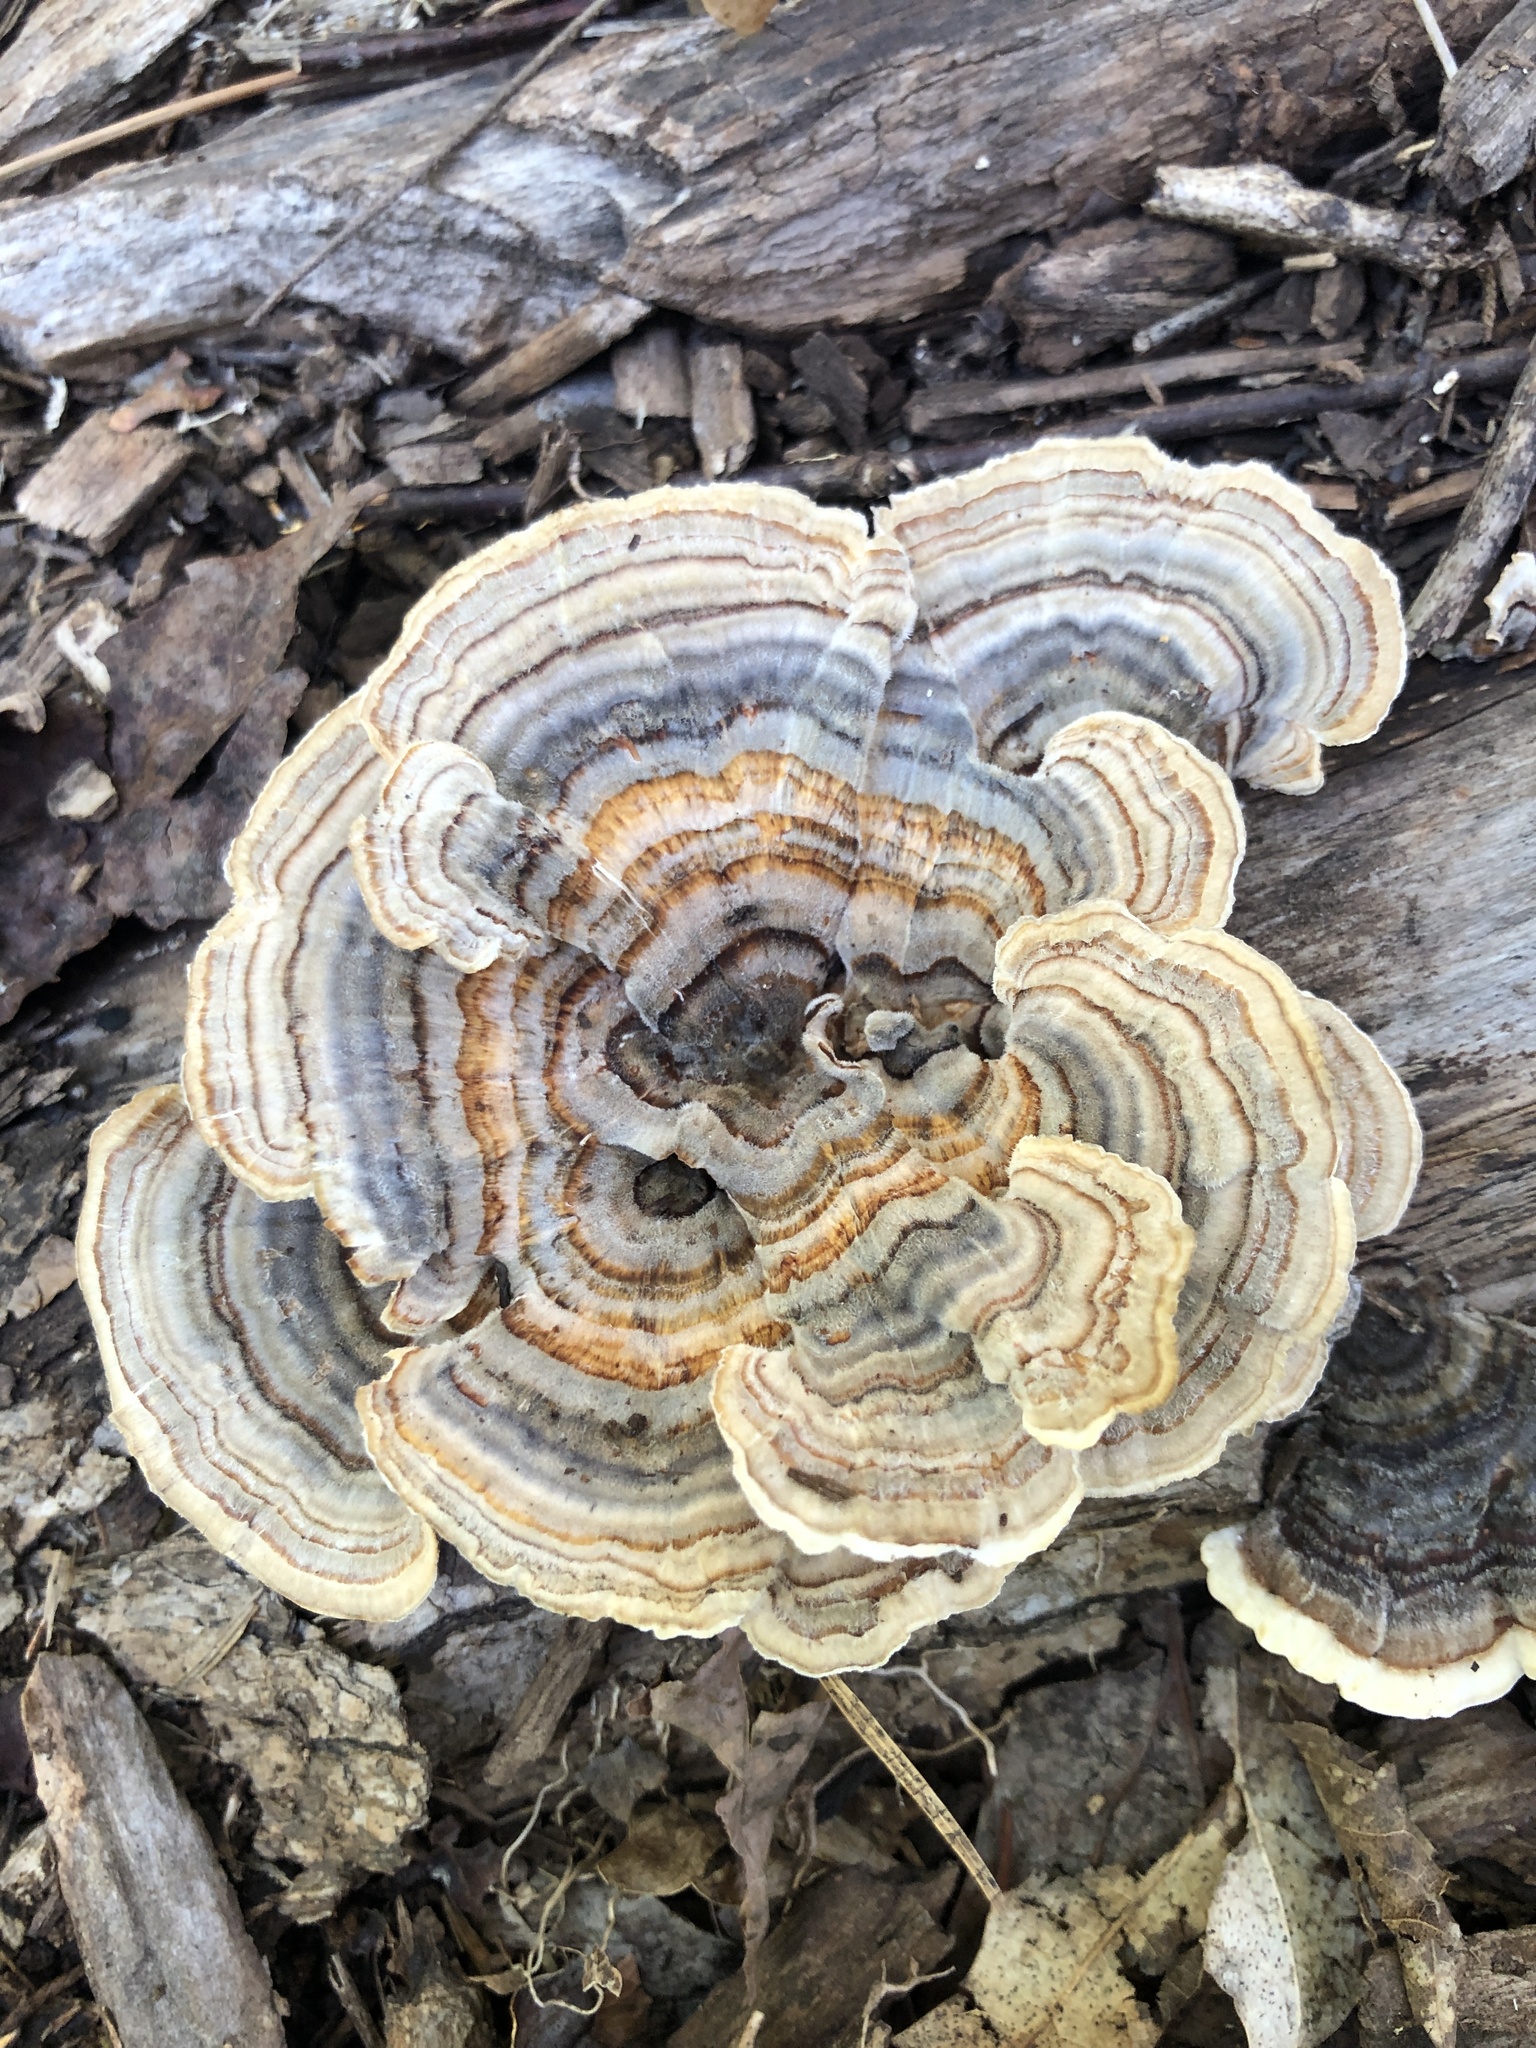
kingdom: Fungi
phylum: Basidiomycota
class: Agaricomycetes
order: Polyporales
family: Polyporaceae
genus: Trametes
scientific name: Trametes versicolor
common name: Turkeytail
